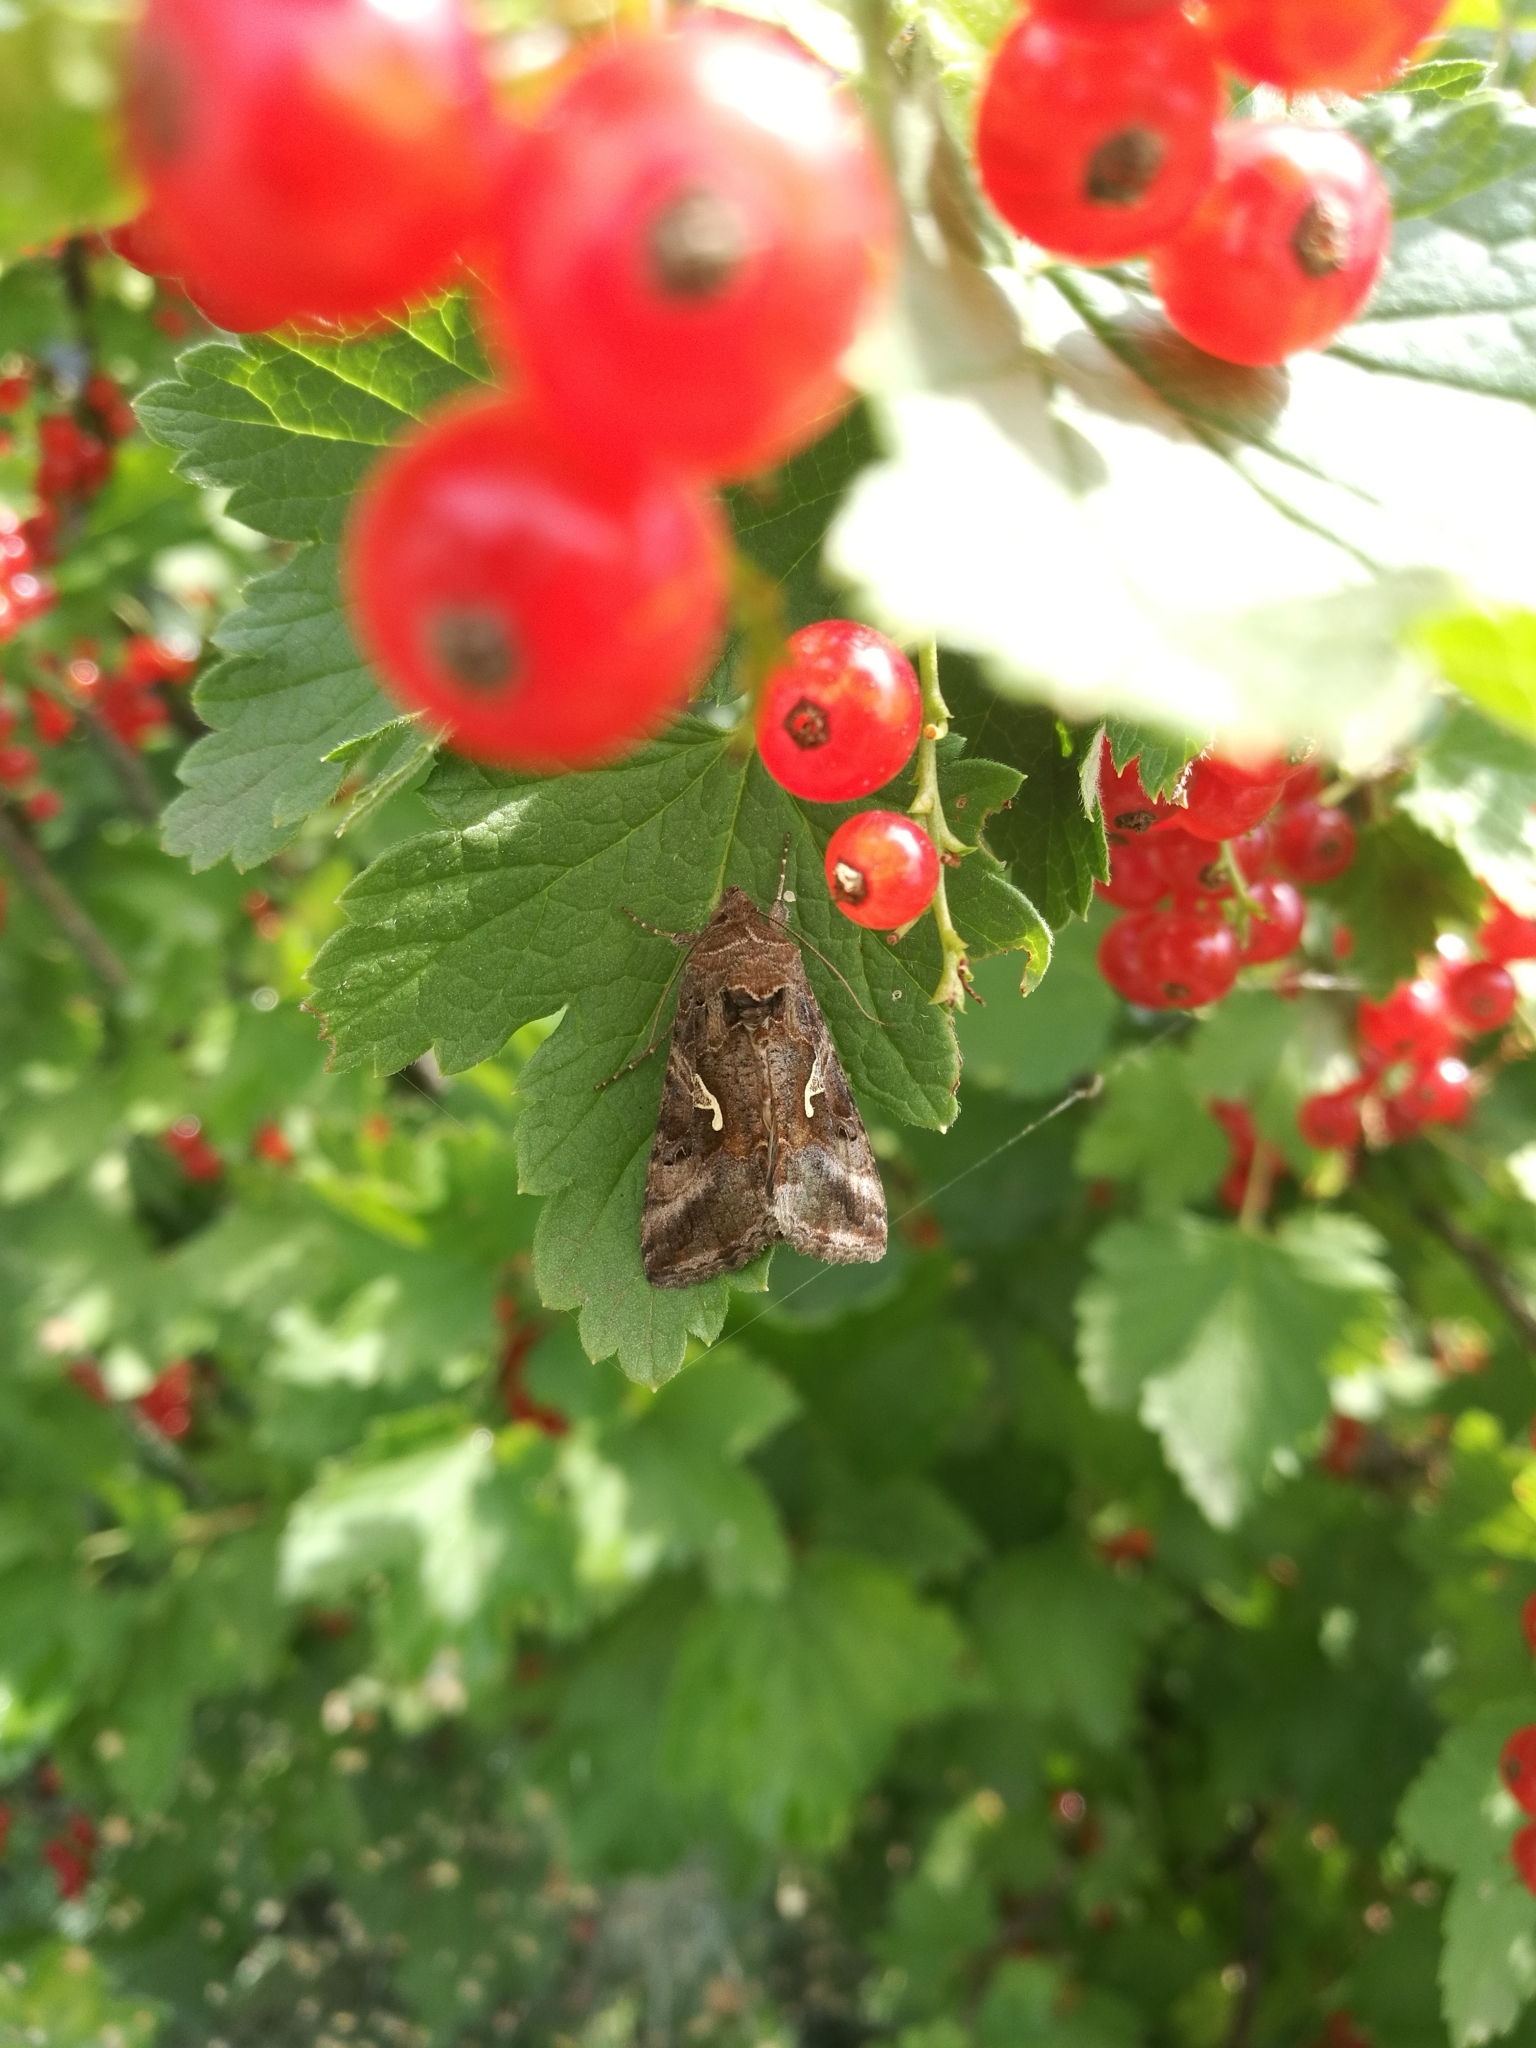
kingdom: Animalia
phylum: Arthropoda
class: Insecta
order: Lepidoptera
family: Noctuidae
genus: Autographa
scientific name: Autographa gamma
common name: Silver y
